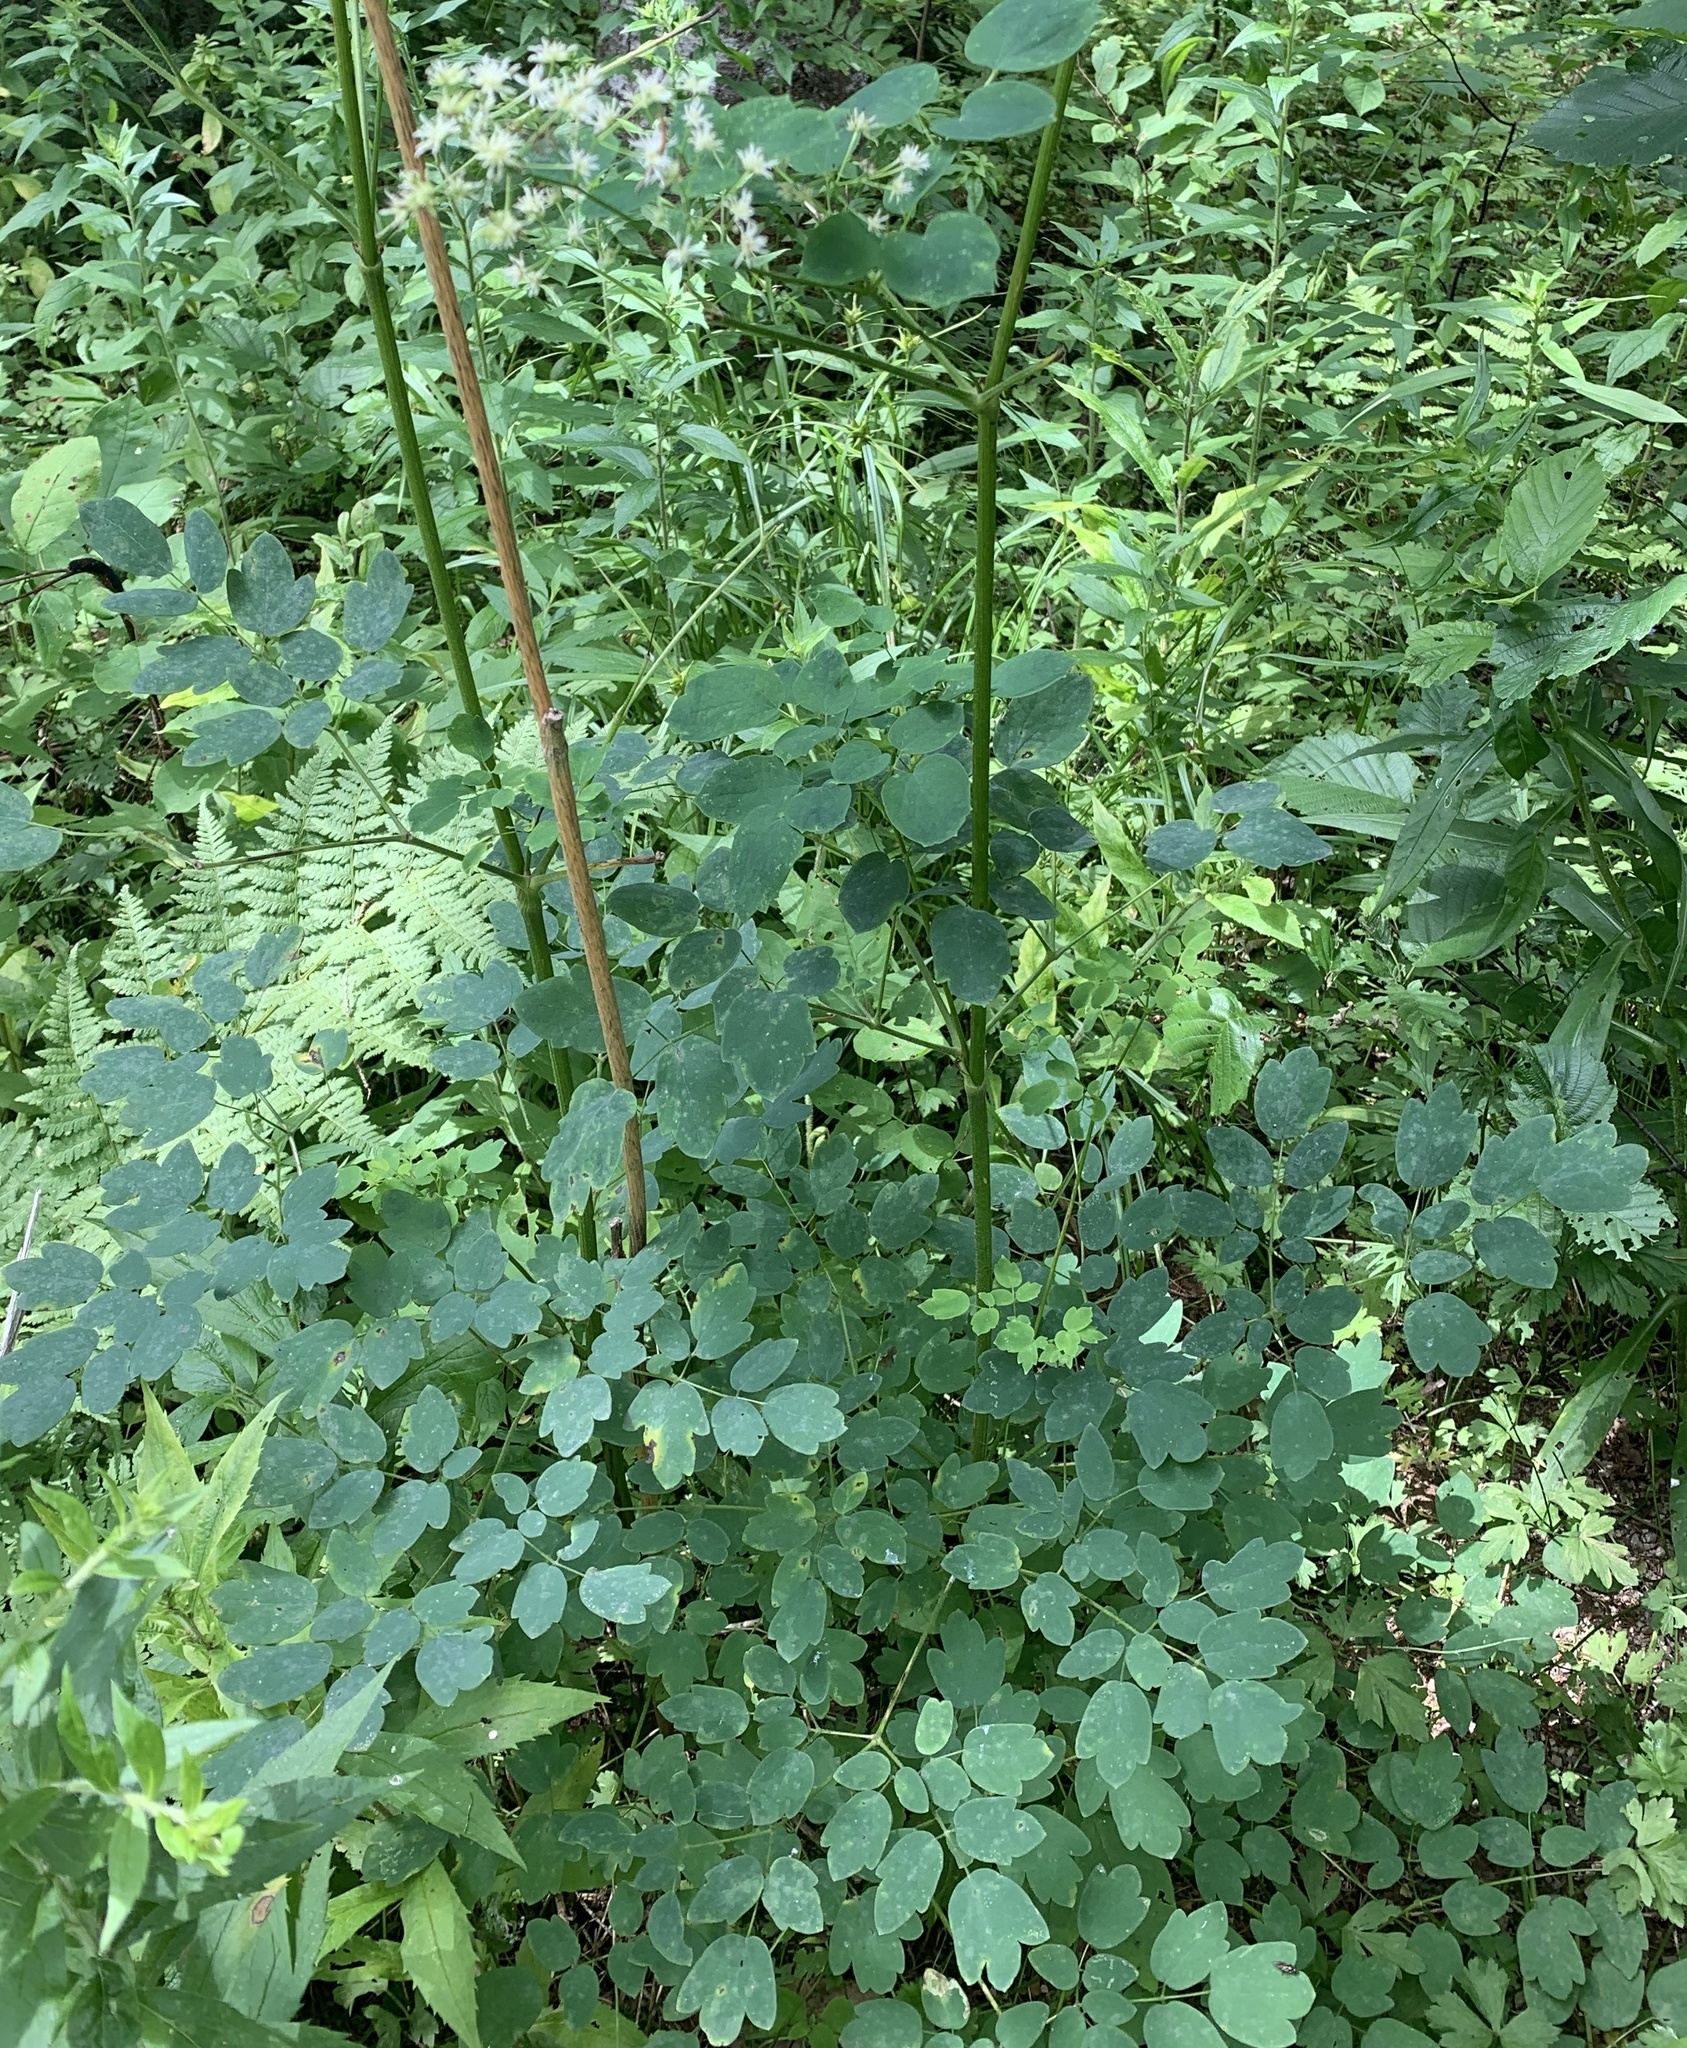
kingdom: Plantae
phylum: Tracheophyta
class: Magnoliopsida
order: Ranunculales
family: Ranunculaceae
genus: Thalictrum
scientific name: Thalictrum pubescens
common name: King-of-the-meadow
